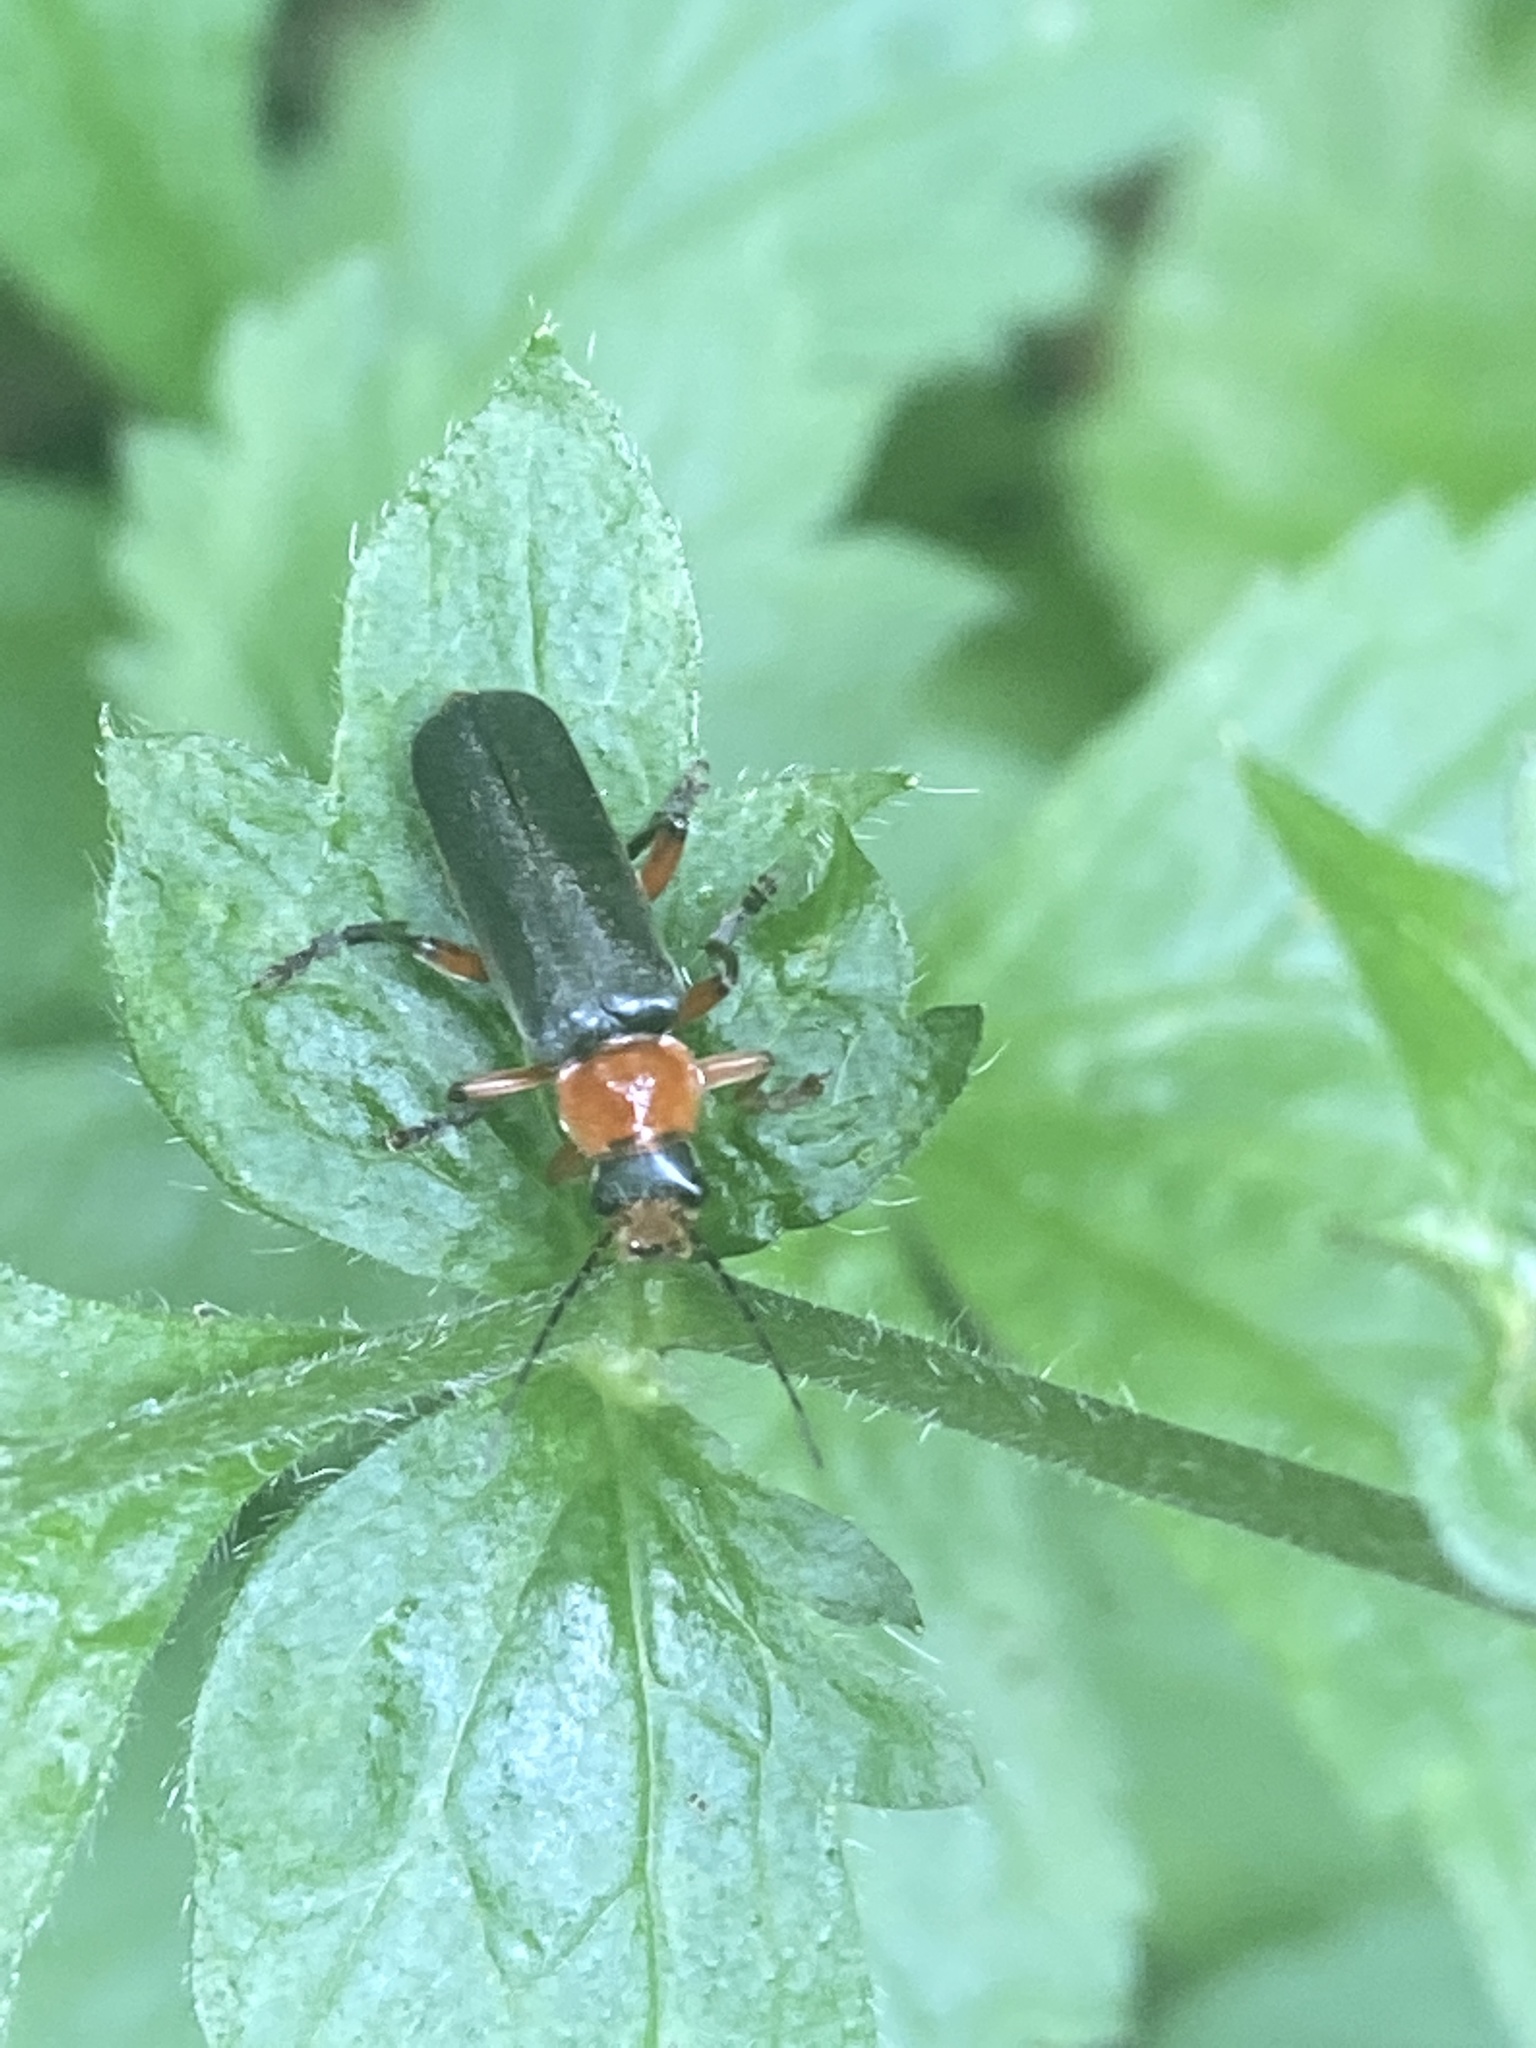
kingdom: Animalia
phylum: Arthropoda
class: Insecta
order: Coleoptera
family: Cantharidae
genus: Cantharis
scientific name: Cantharis pellucida
